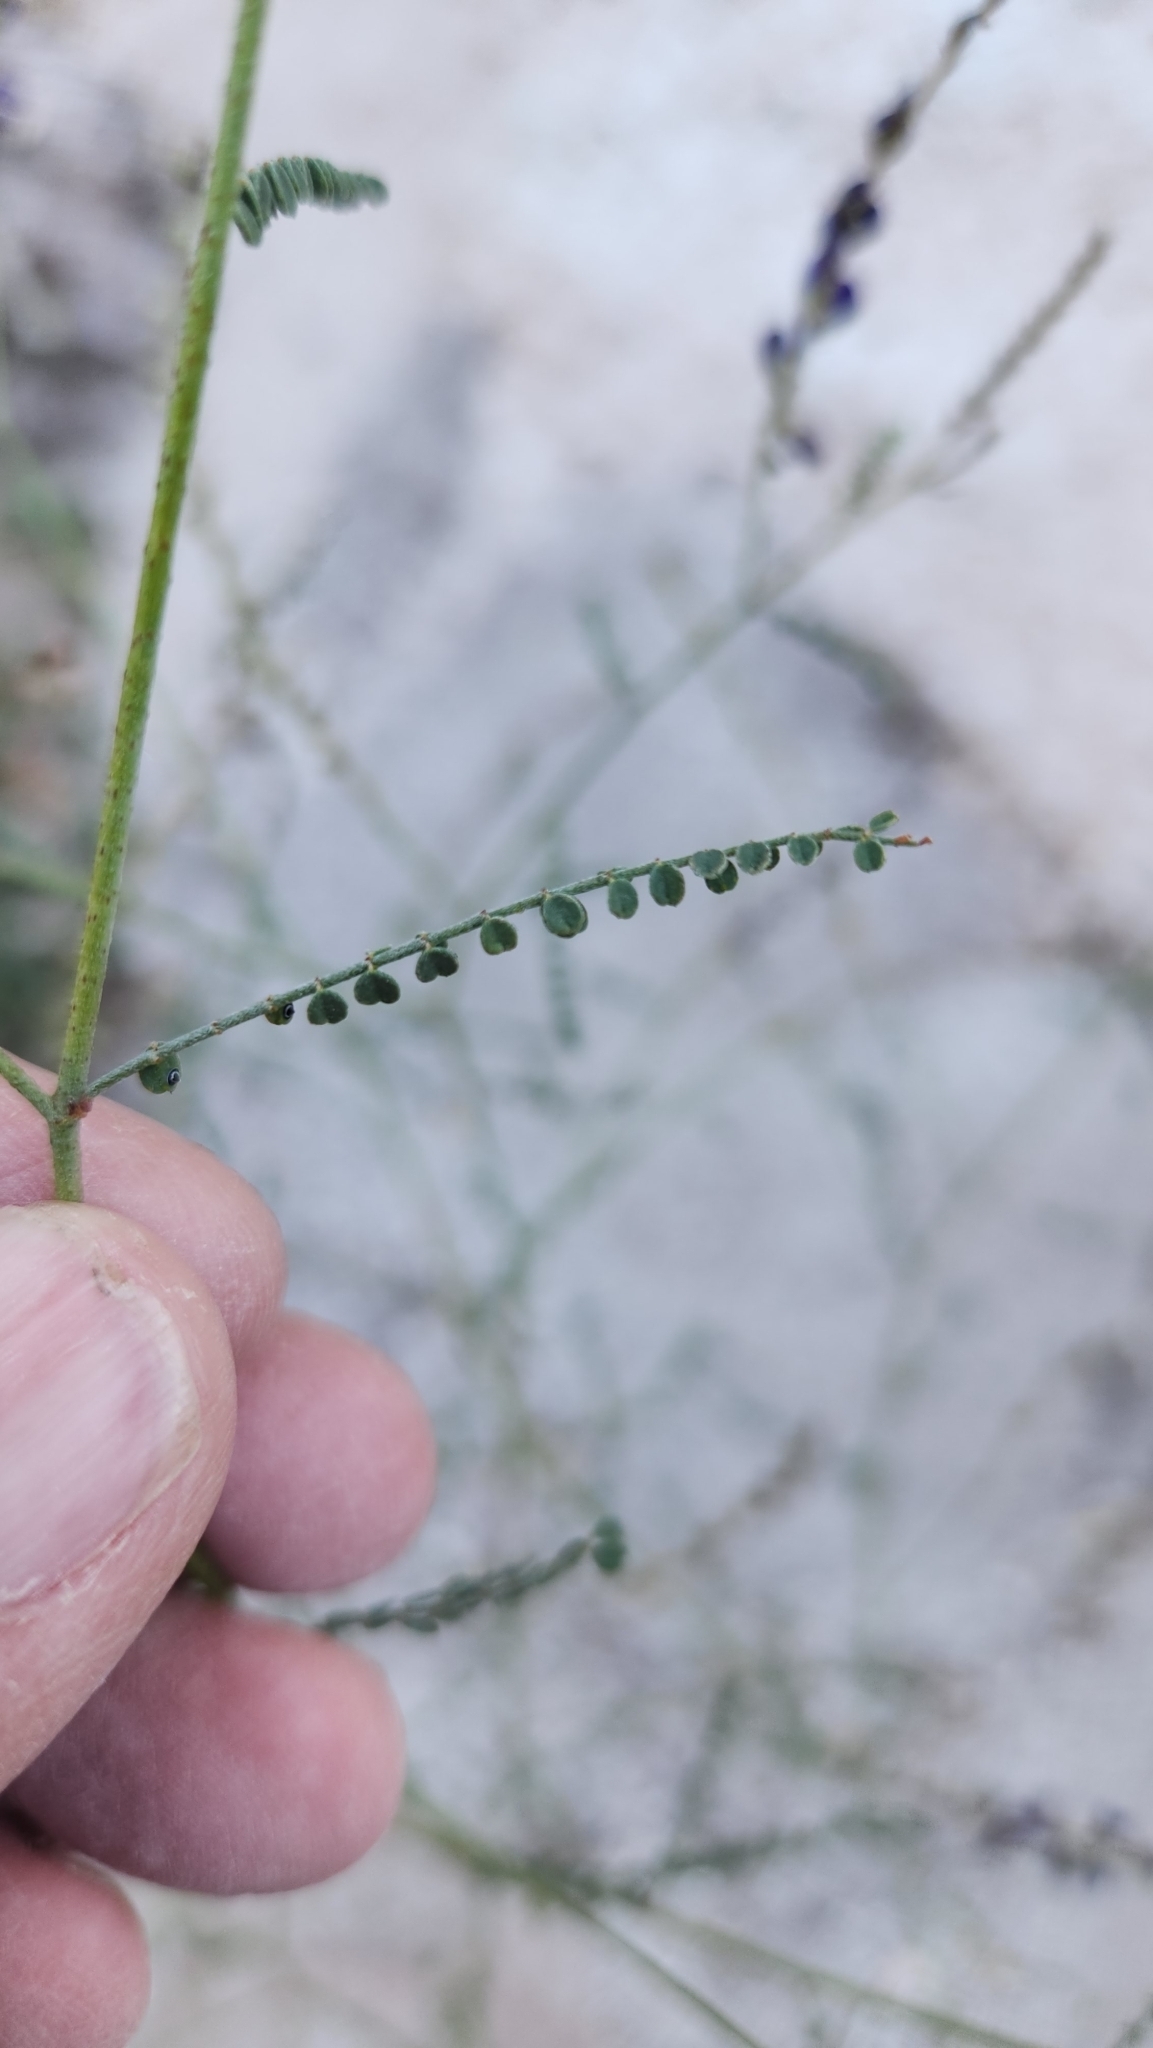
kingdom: Plantae
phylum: Tracheophyta
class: Magnoliopsida
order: Fabales
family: Fabaceae
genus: Marina
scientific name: Marina parryi
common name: Parry's marina
